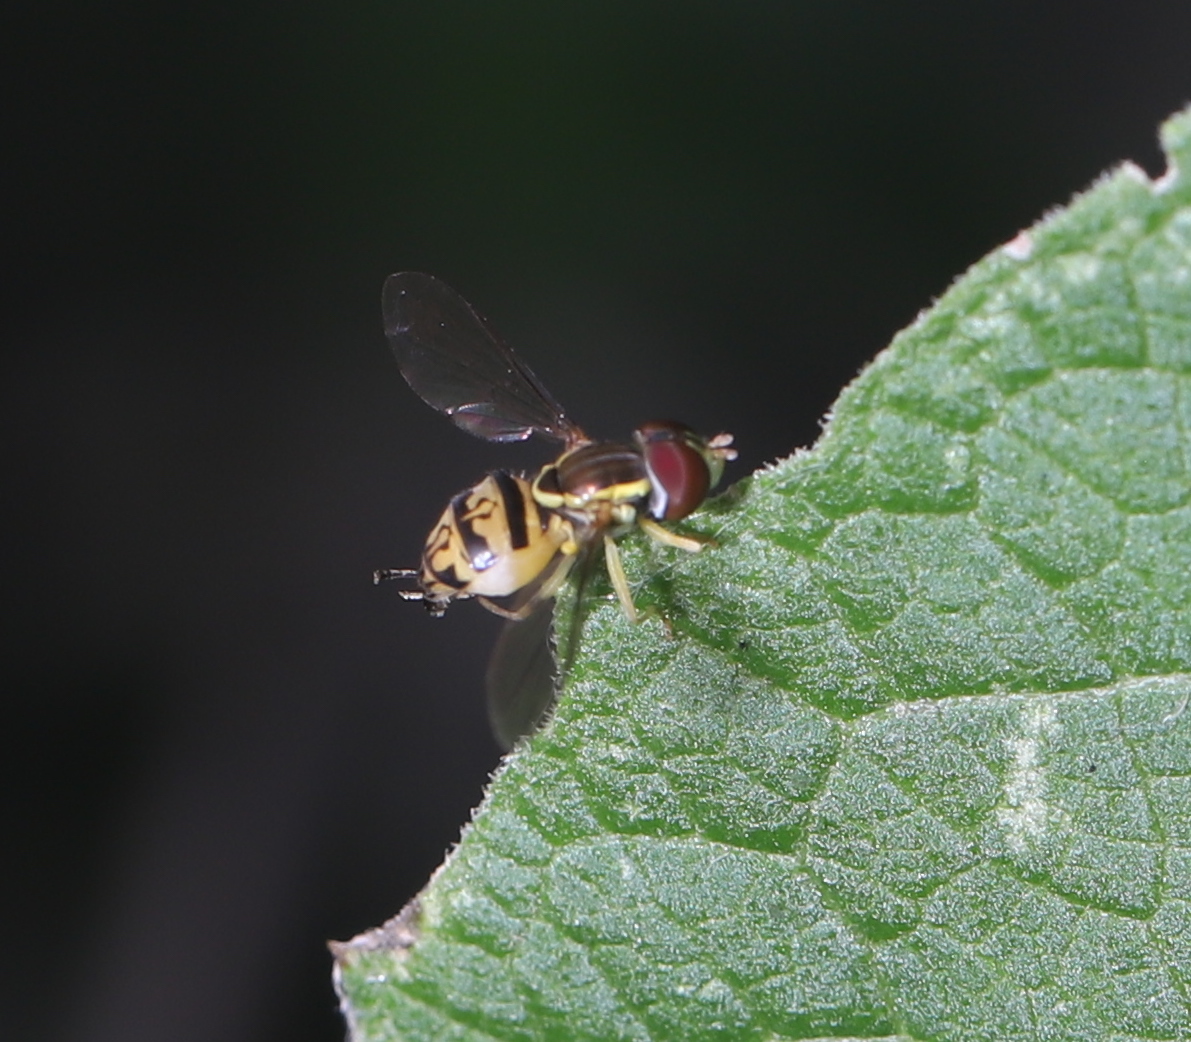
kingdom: Animalia
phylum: Arthropoda
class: Insecta
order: Diptera
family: Syrphidae
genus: Toxomerus
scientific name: Toxomerus marginatus
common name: Syrphid fly
